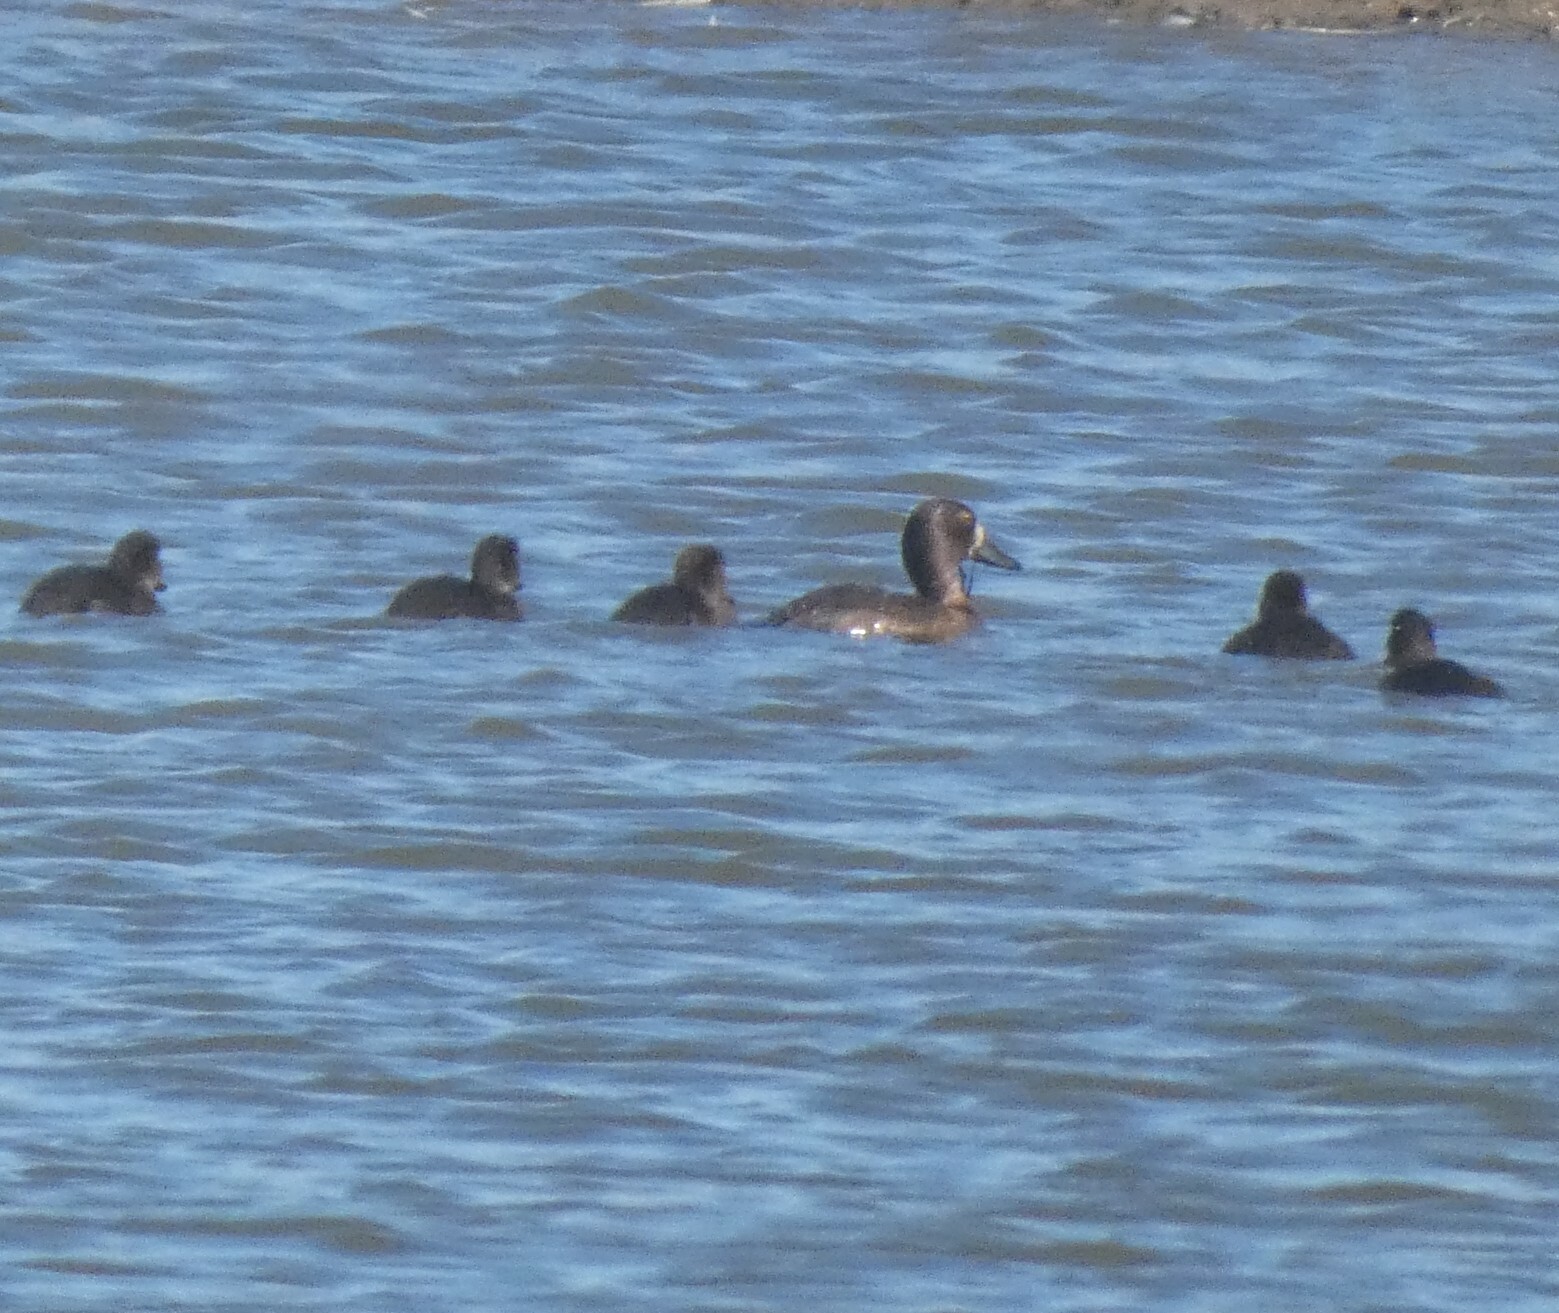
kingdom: Animalia
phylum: Chordata
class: Aves
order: Anseriformes
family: Anatidae
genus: Aythya
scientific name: Aythya fuligula
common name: Tufted duck
